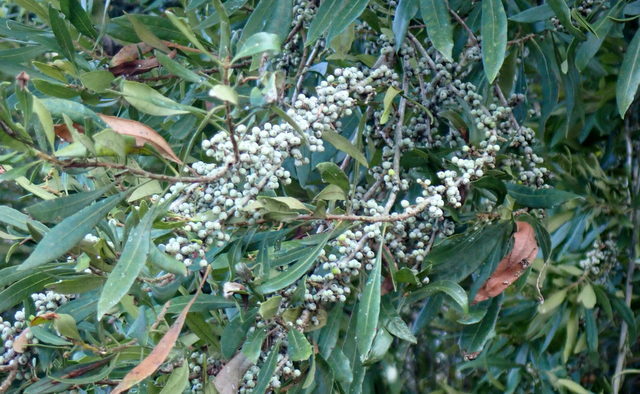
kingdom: Plantae
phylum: Tracheophyta
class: Magnoliopsida
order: Fagales
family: Myricaceae
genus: Morella
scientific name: Morella cerifera
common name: Wax myrtle
